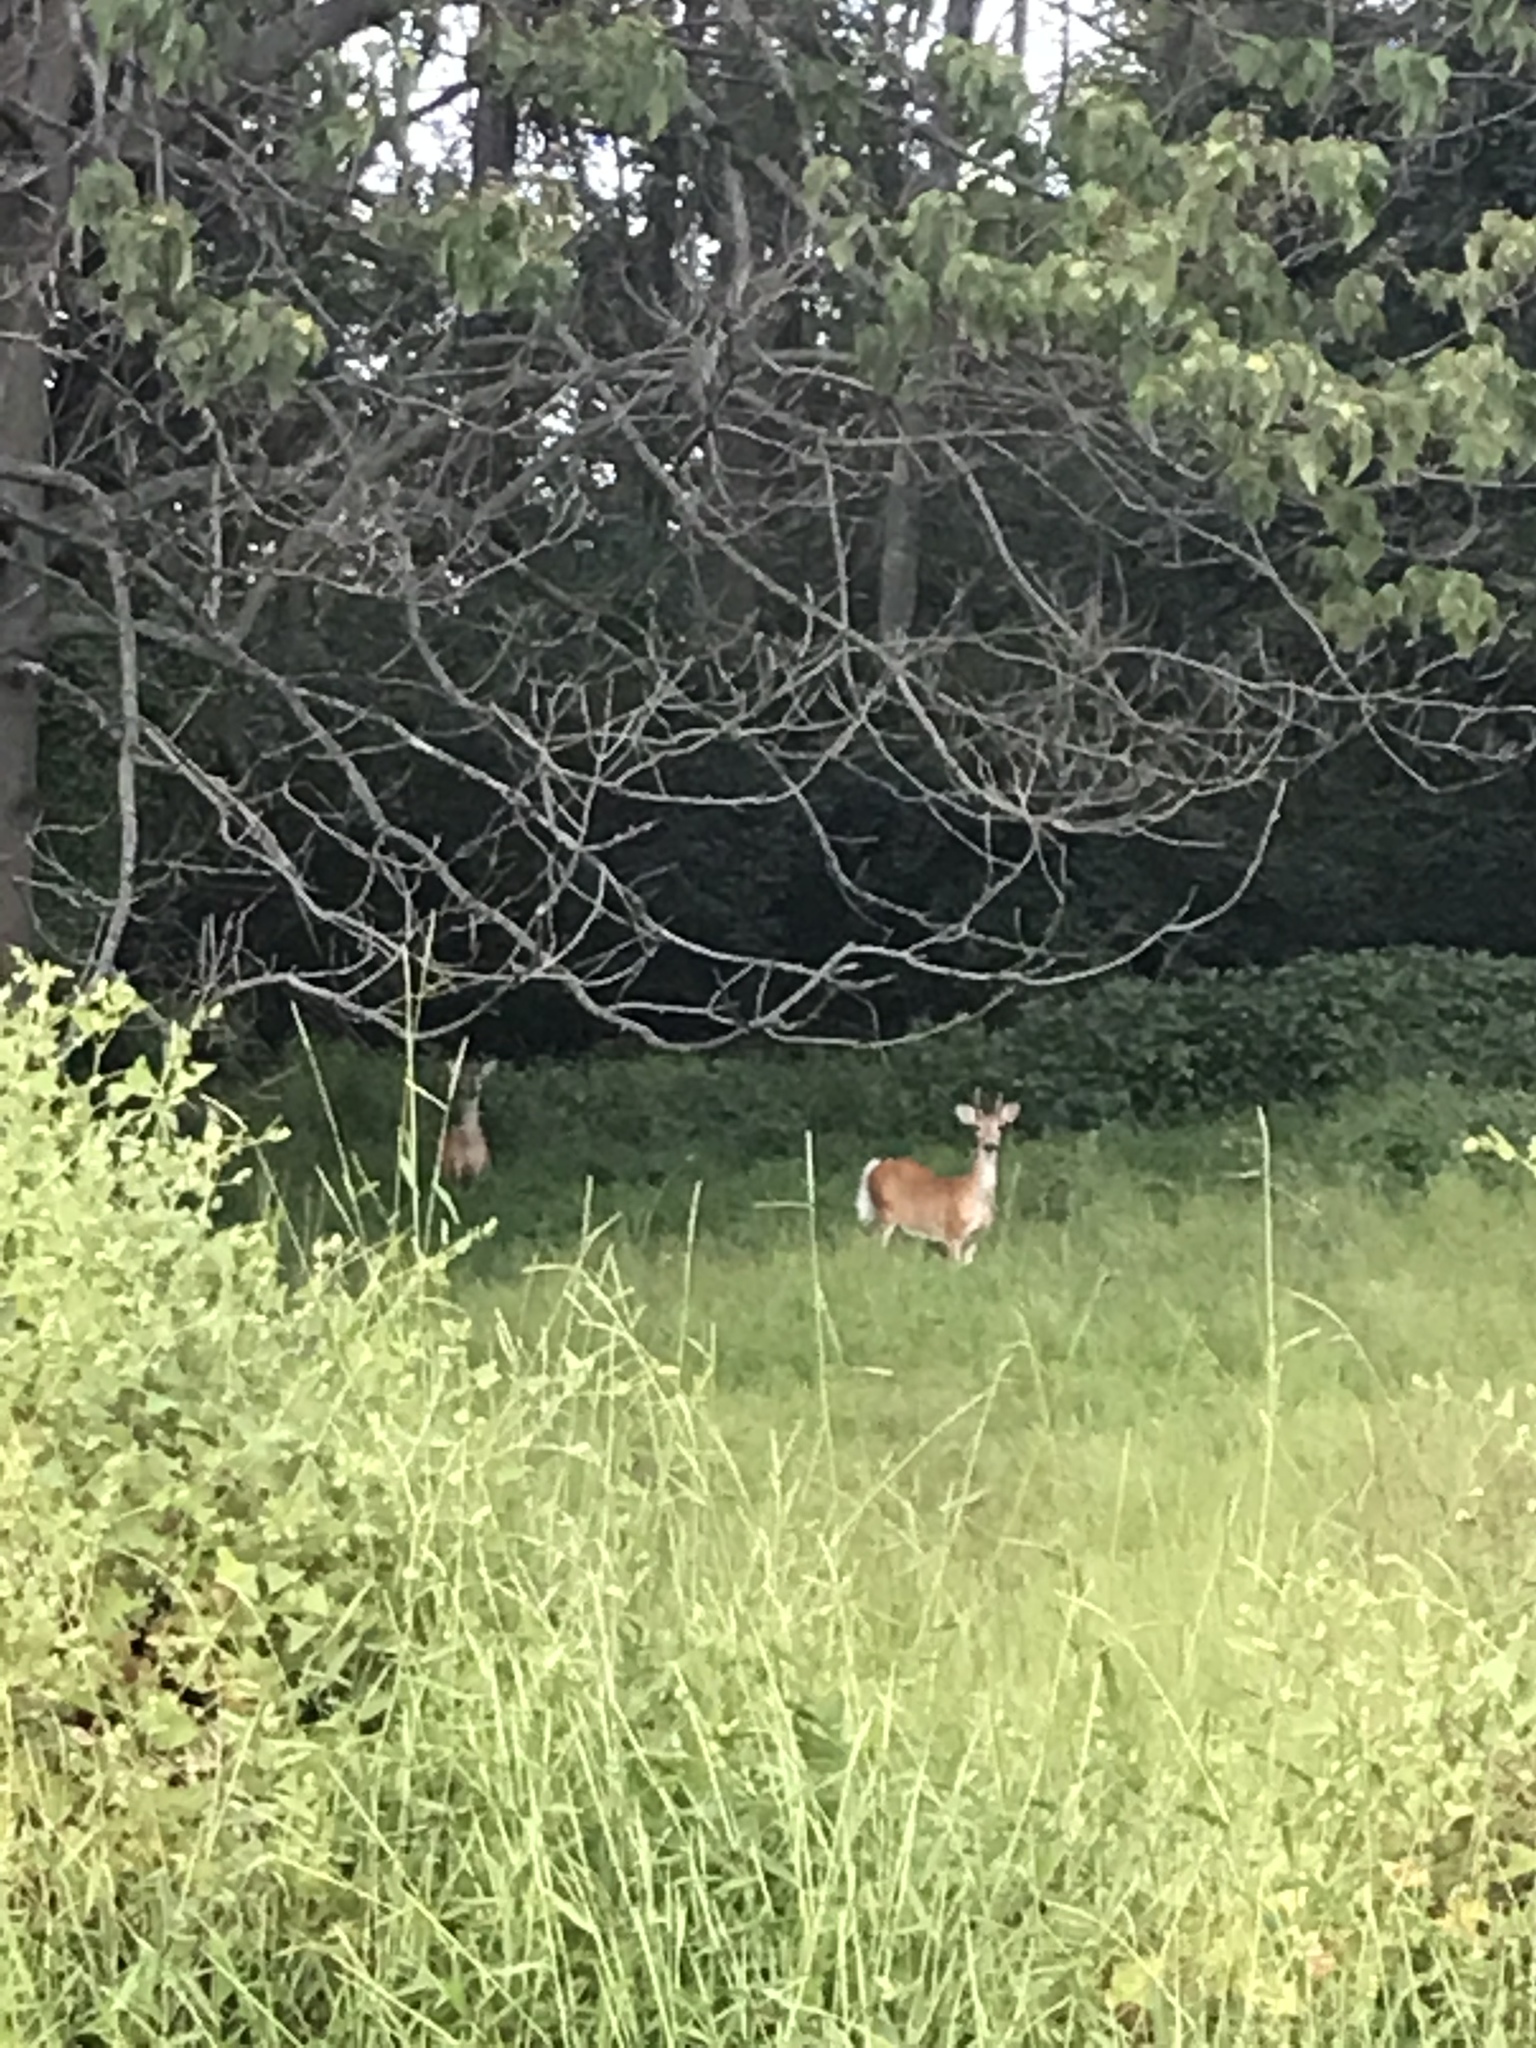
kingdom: Animalia
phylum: Chordata
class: Mammalia
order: Artiodactyla
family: Cervidae
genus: Odocoileus
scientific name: Odocoileus virginianus
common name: White-tailed deer
